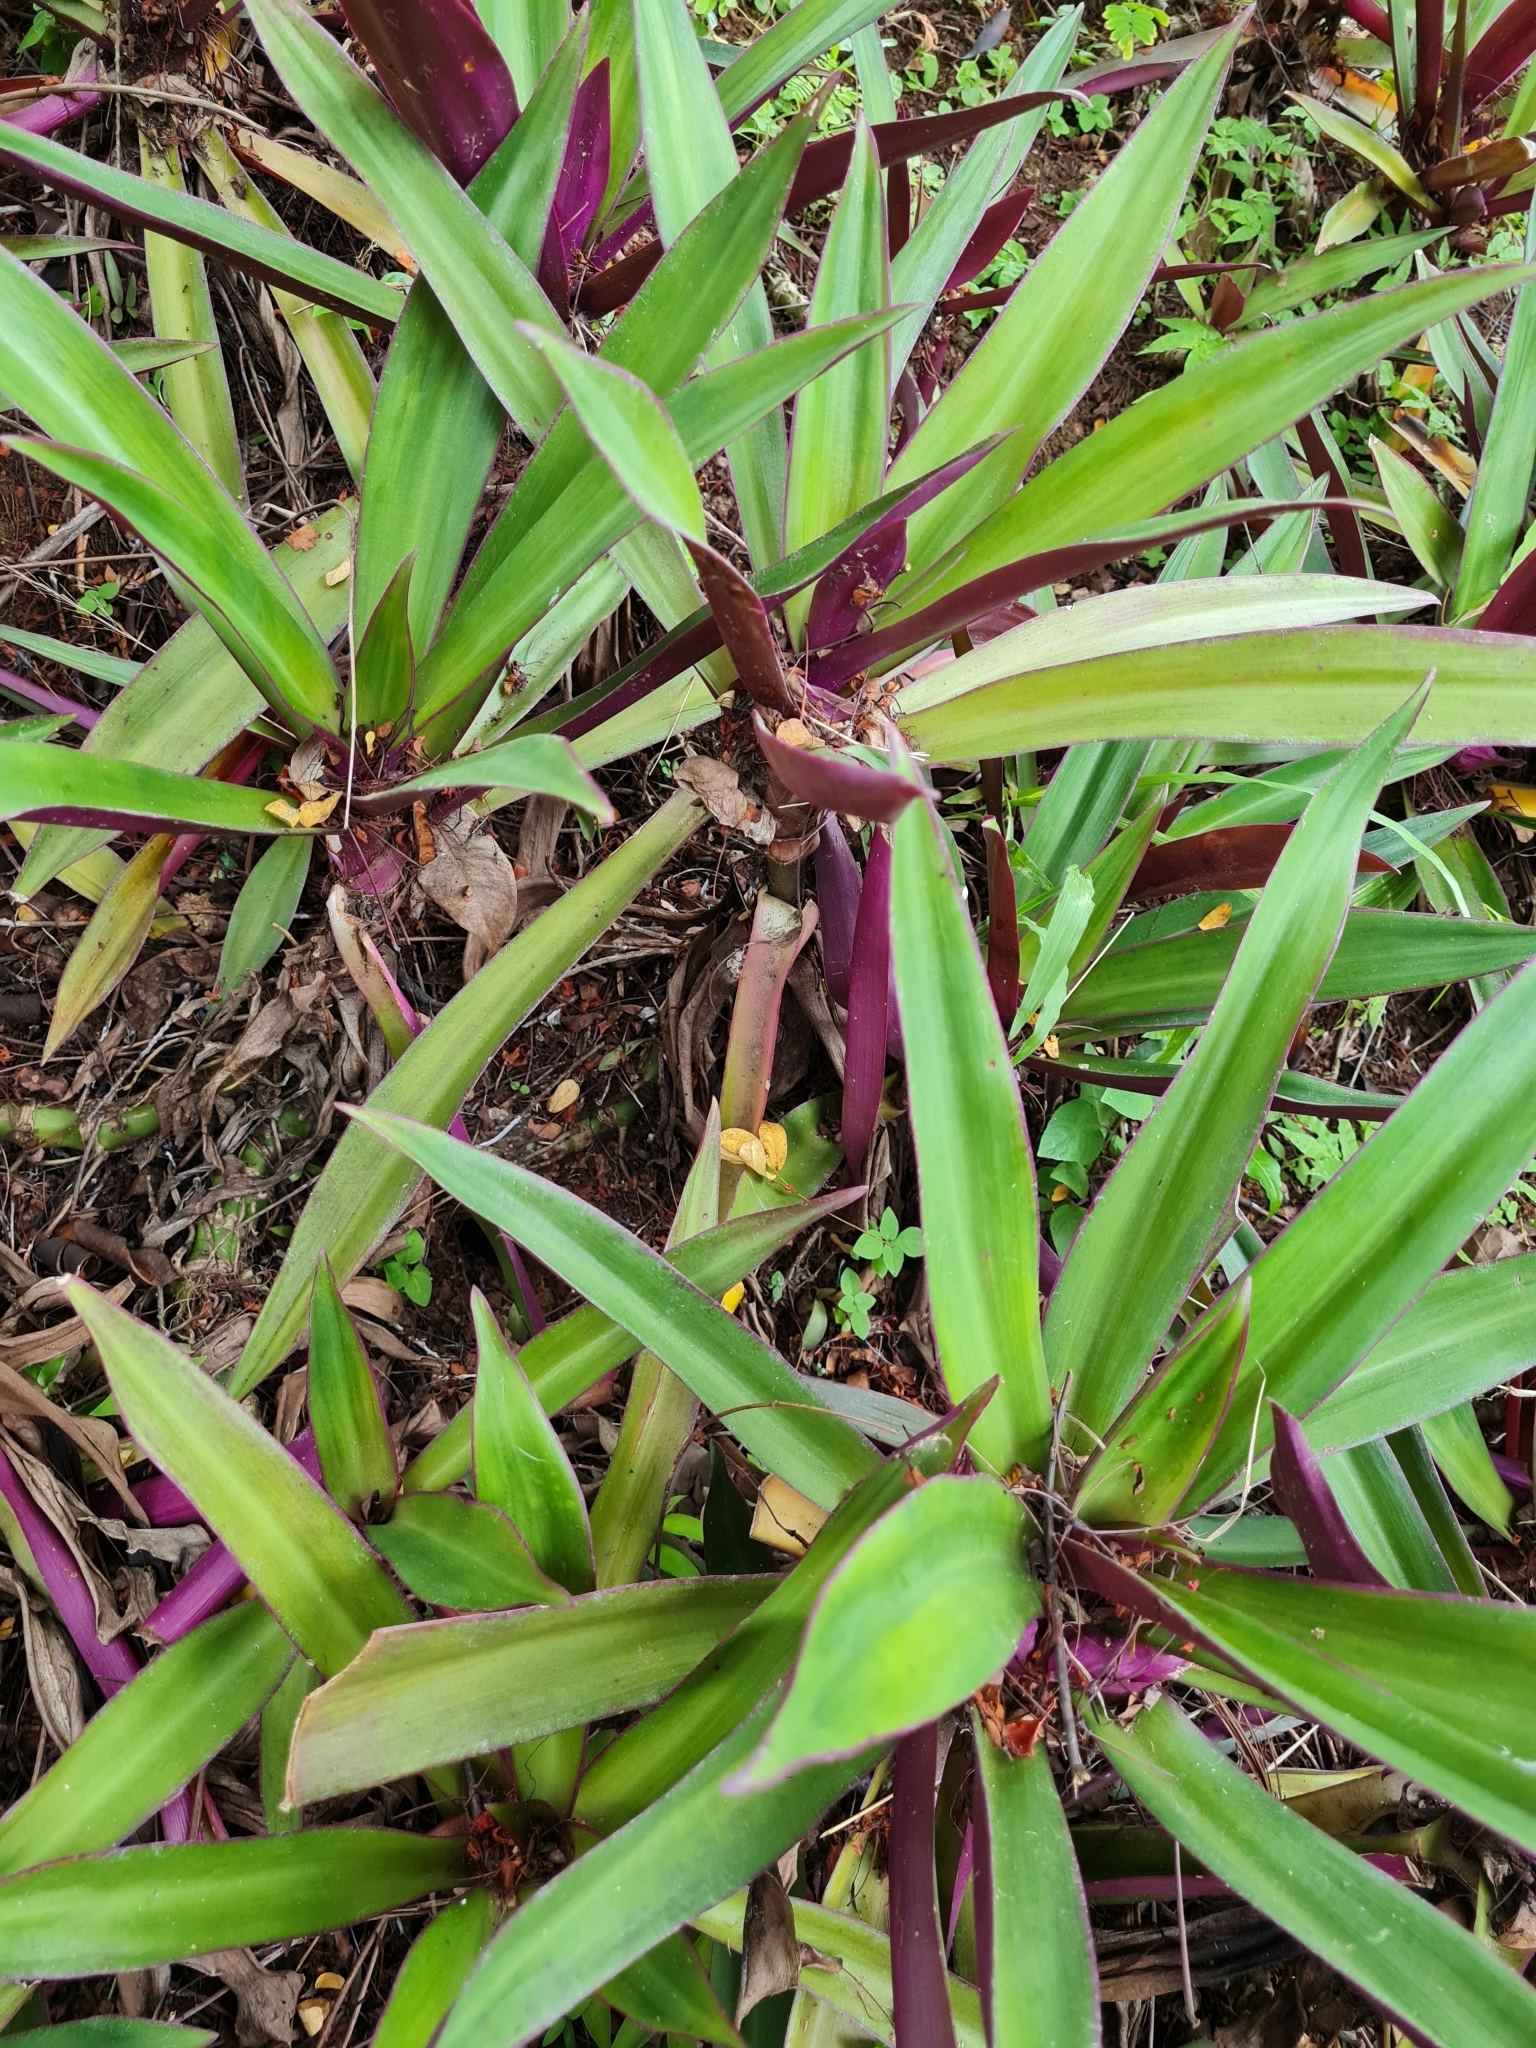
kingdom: Plantae
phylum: Tracheophyta
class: Liliopsida
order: Commelinales
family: Commelinaceae
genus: Tradescantia
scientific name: Tradescantia spathacea
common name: Boatlily
